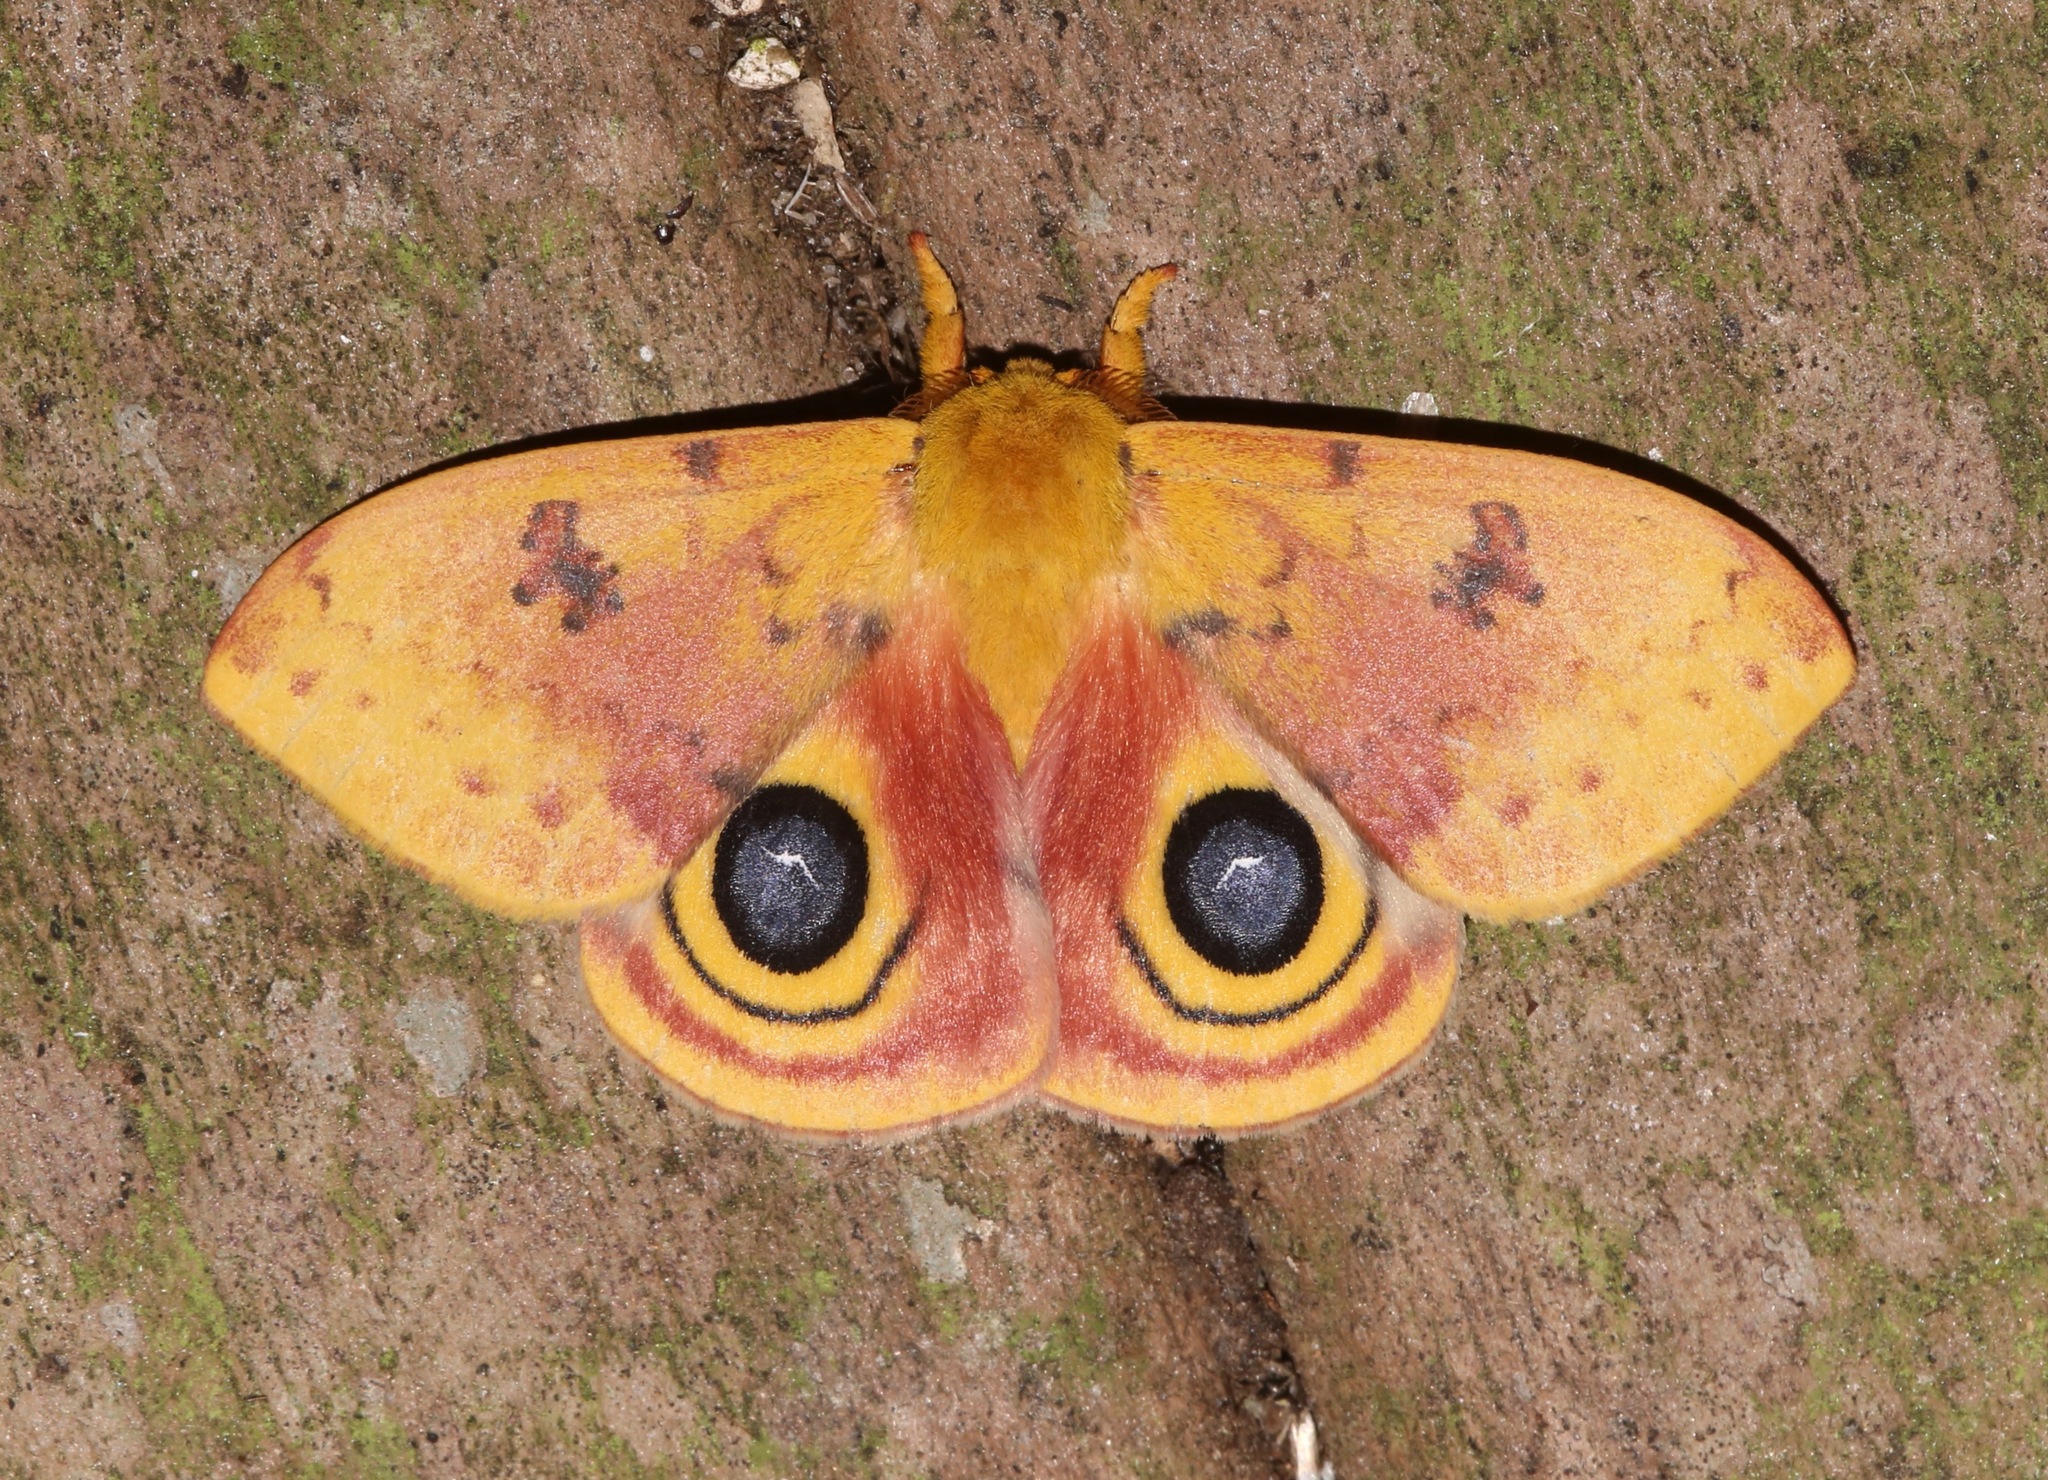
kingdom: Animalia
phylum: Arthropoda
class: Insecta
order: Lepidoptera
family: Saturniidae
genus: Automeris
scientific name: Automeris io
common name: Io moth
